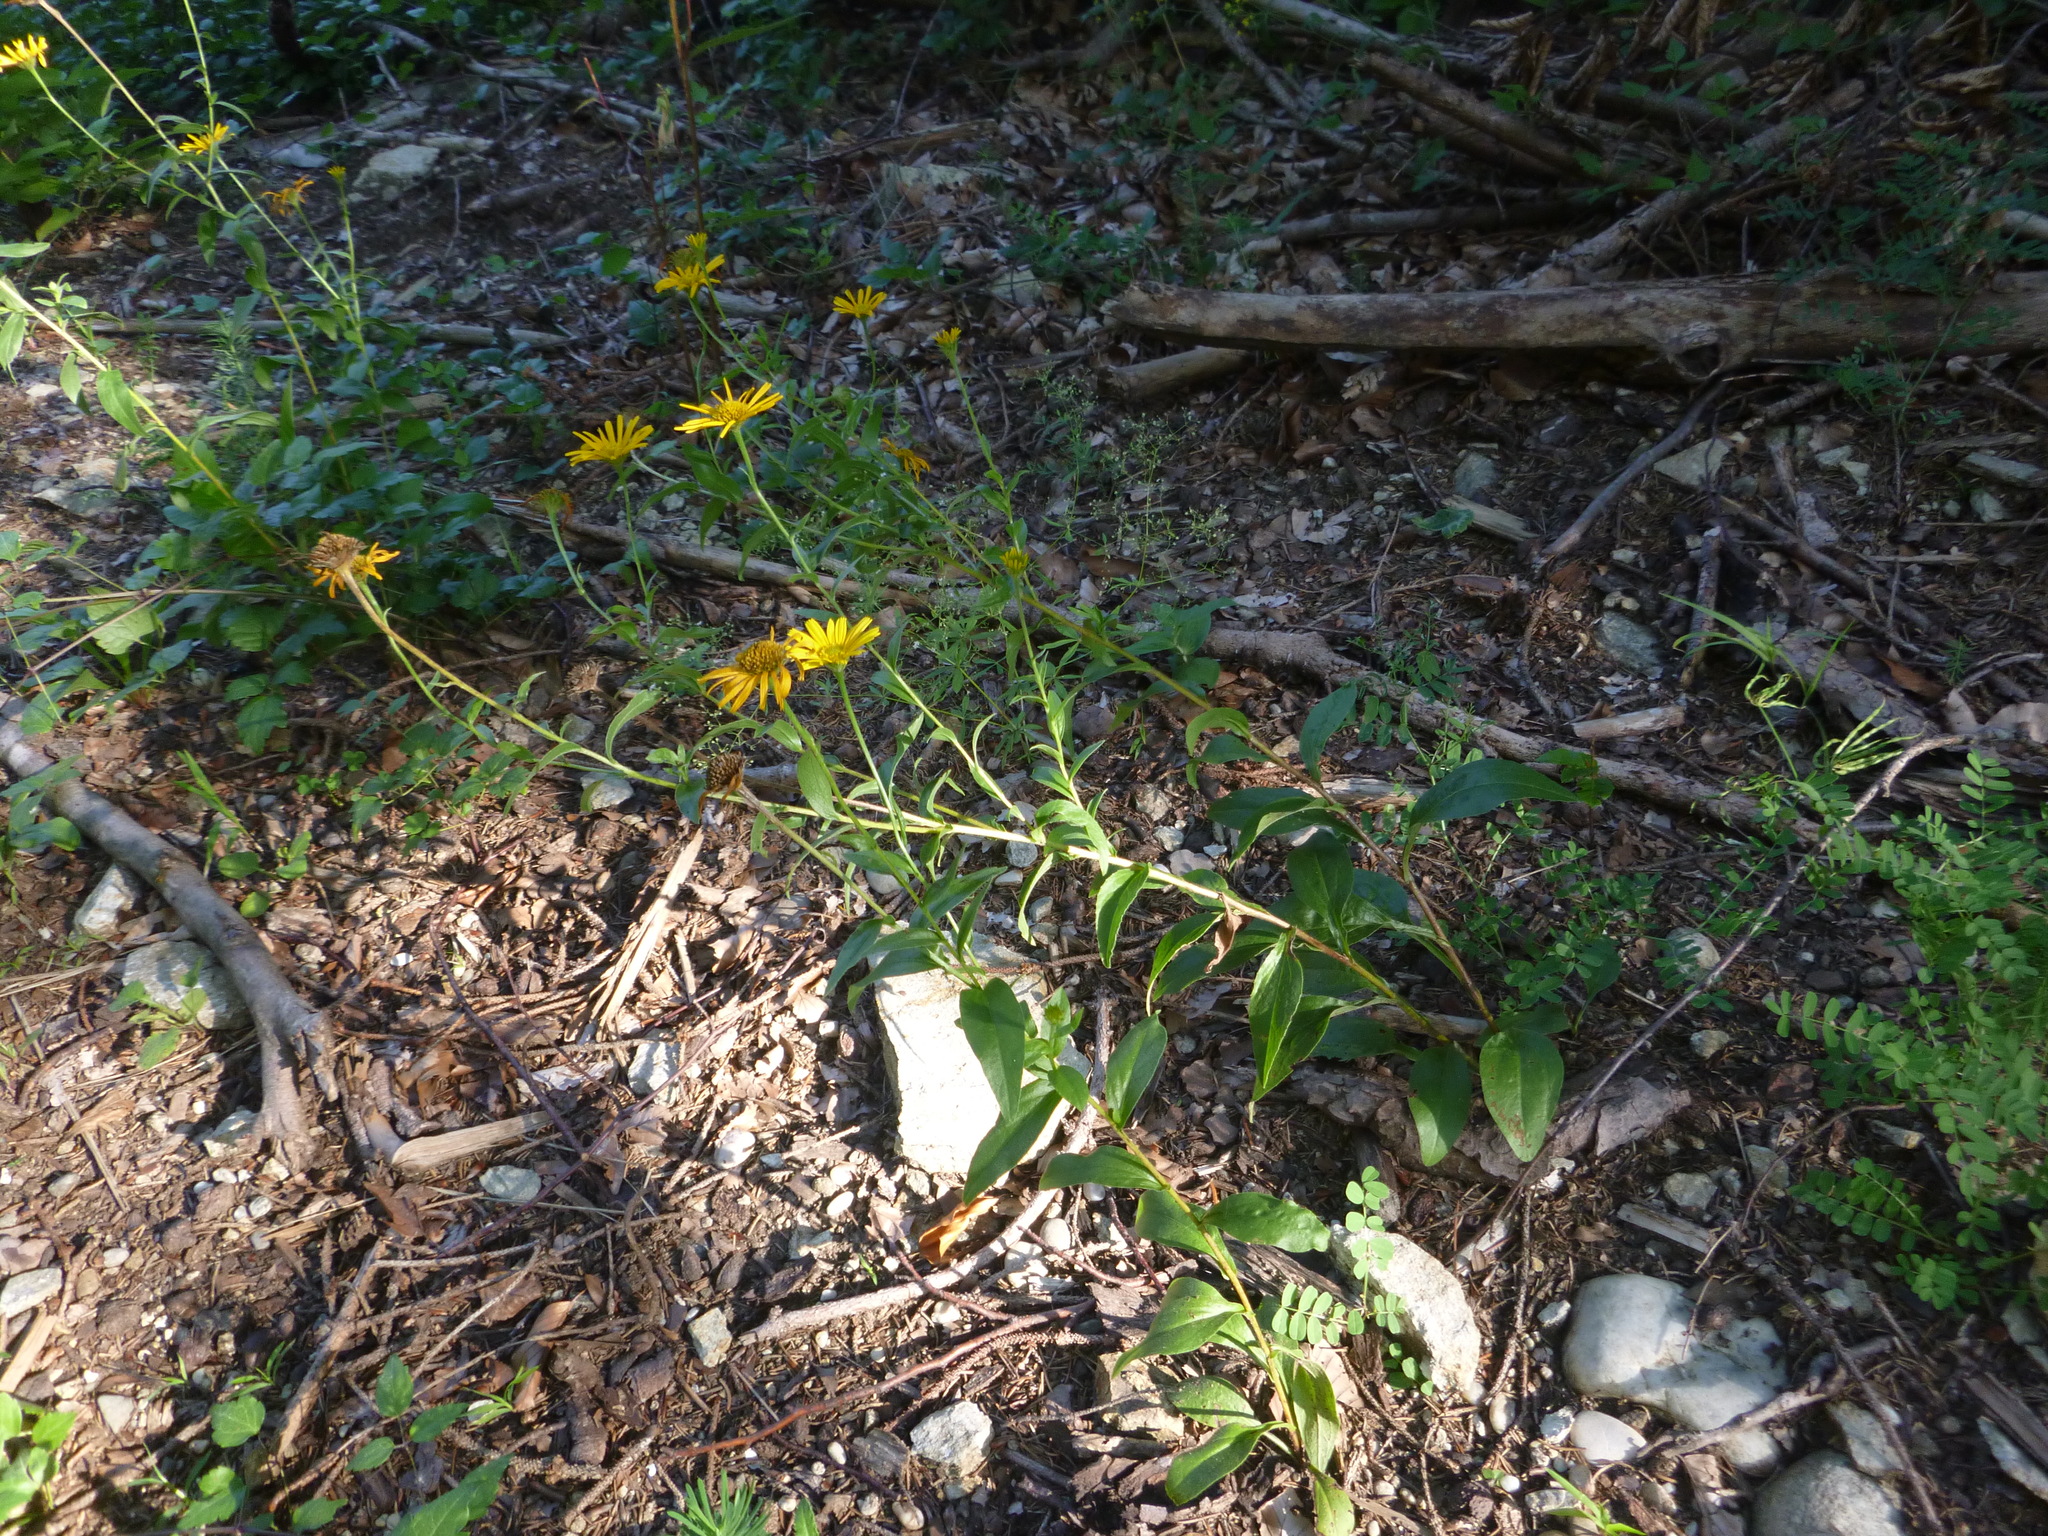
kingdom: Plantae
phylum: Tracheophyta
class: Magnoliopsida
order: Asterales
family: Asteraceae
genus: Buphthalmum
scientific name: Buphthalmum salicifolium
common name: Willow-leaved yellow-oxeye
